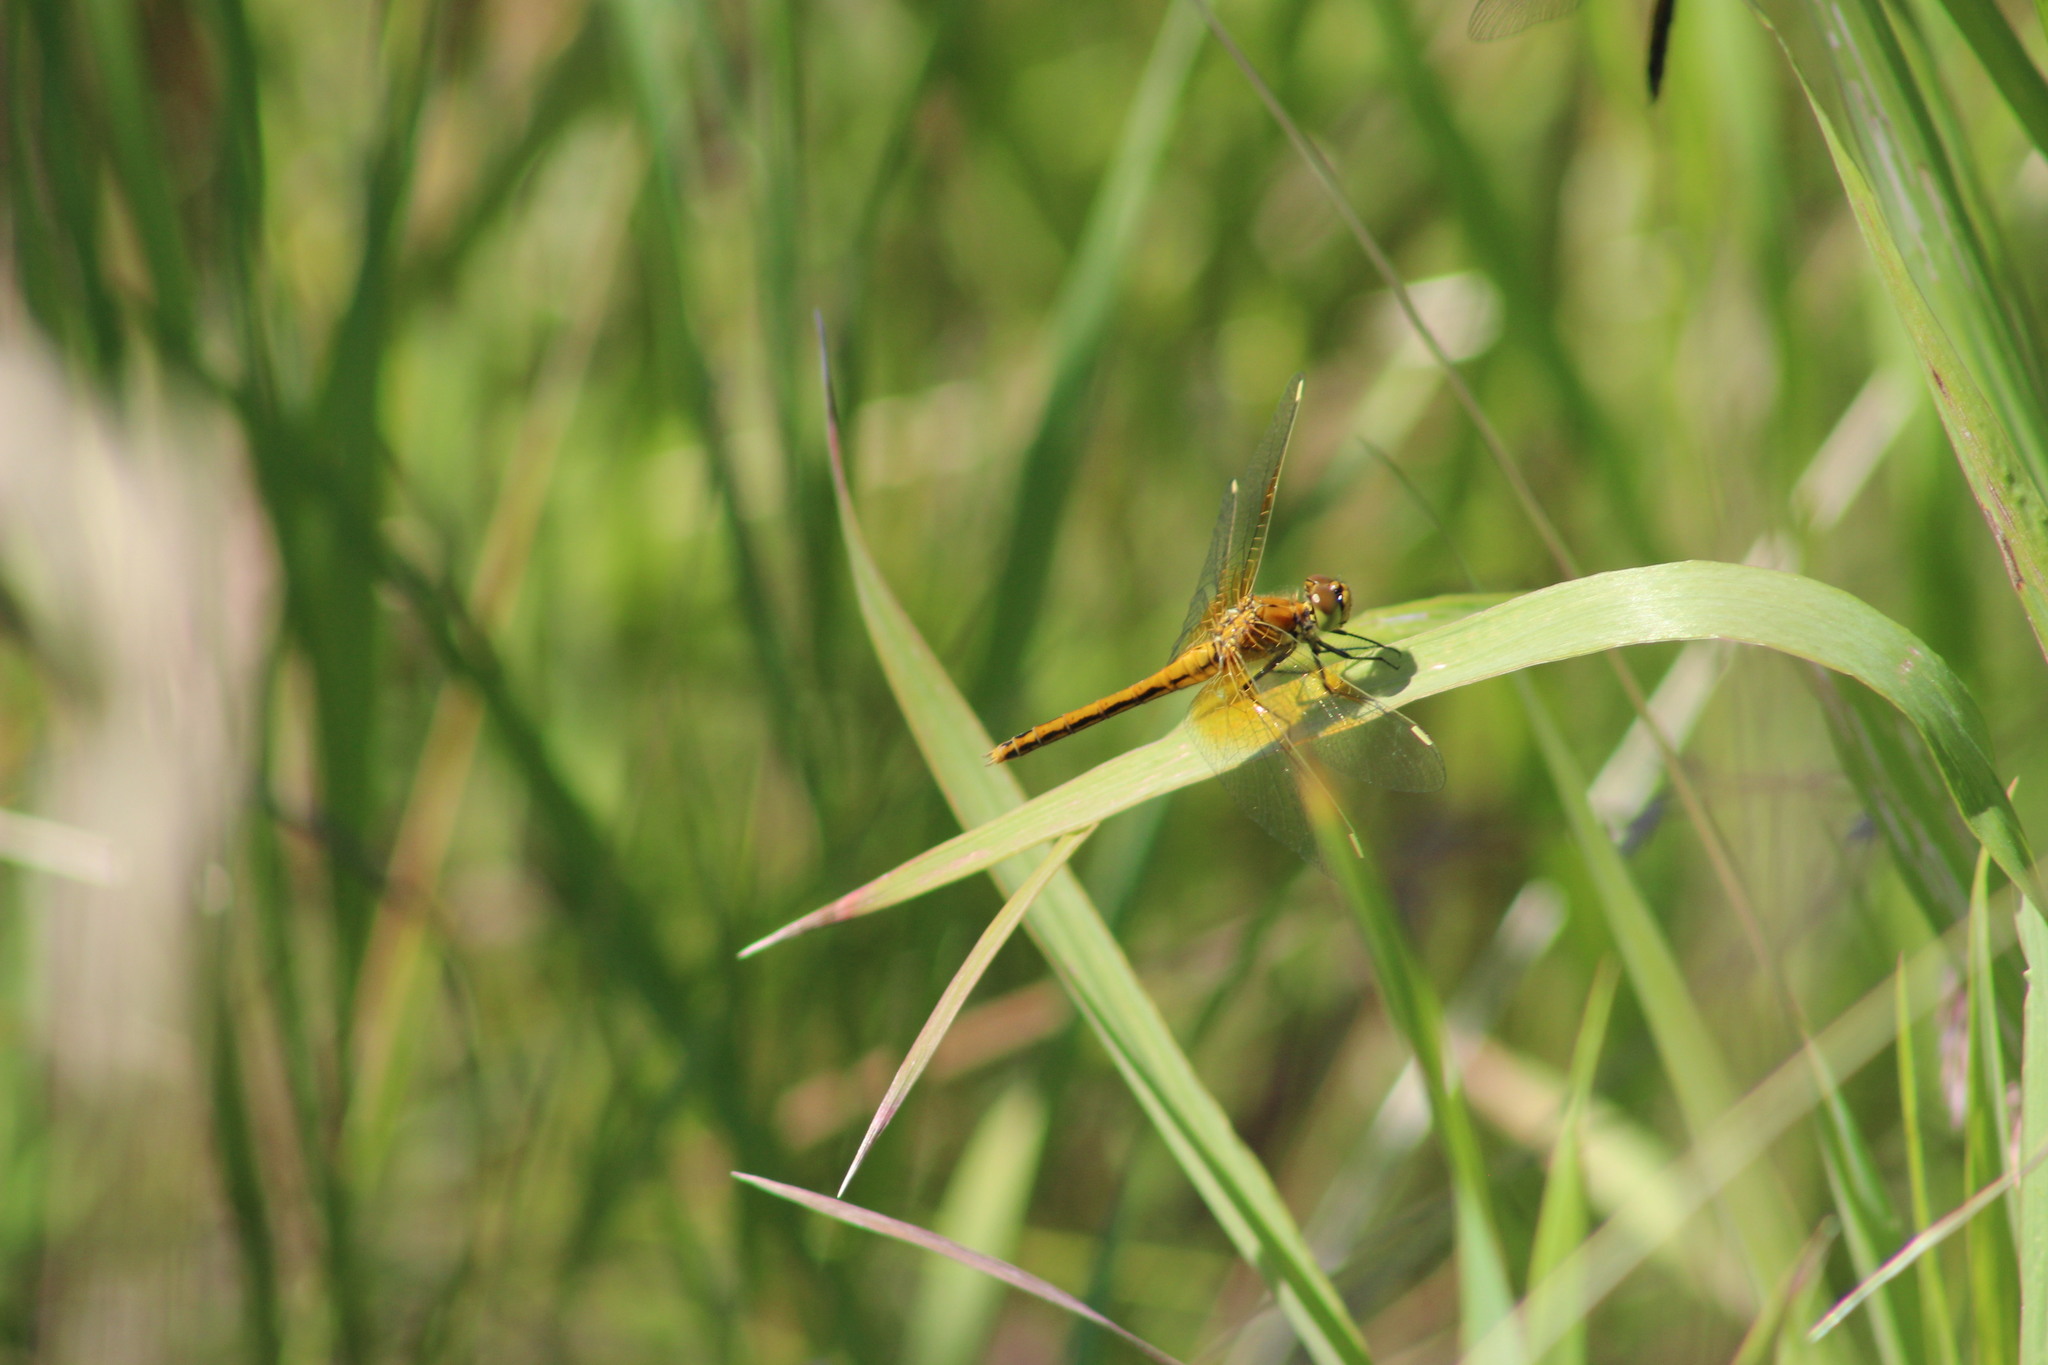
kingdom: Animalia
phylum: Arthropoda
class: Insecta
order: Odonata
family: Libellulidae
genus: Sympetrum
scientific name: Sympetrum flaveolum
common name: Yellow-winged darter
